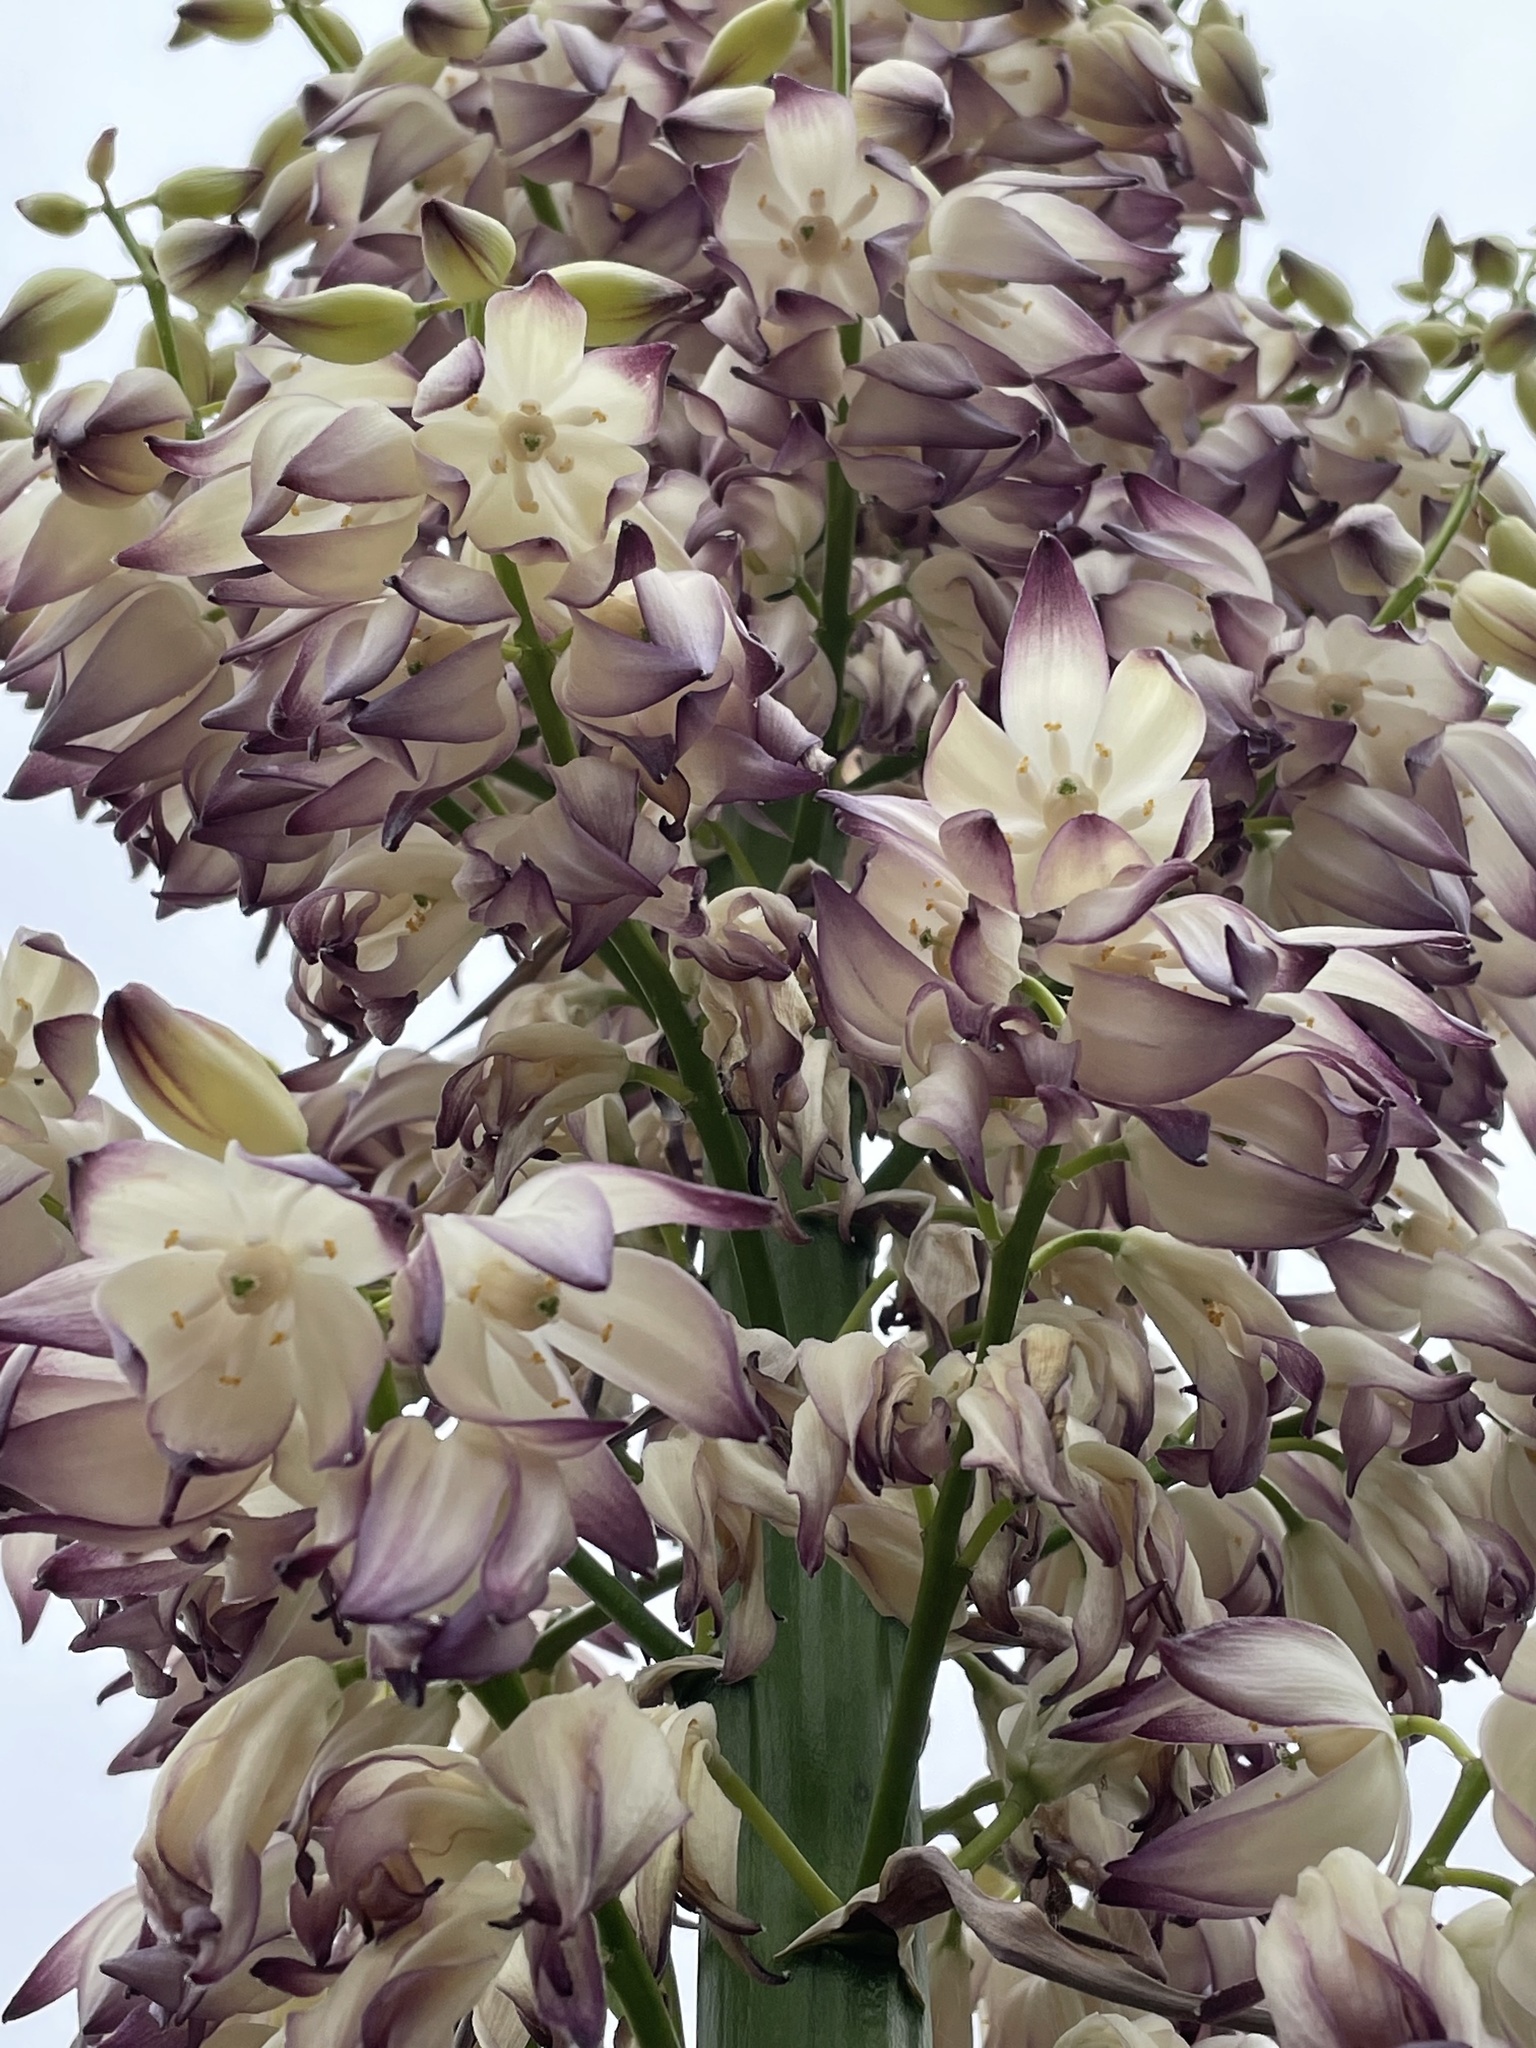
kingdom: Plantae
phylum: Tracheophyta
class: Liliopsida
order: Asparagales
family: Asparagaceae
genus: Hesperoyucca
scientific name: Hesperoyucca whipplei
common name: Our lord's-candle
